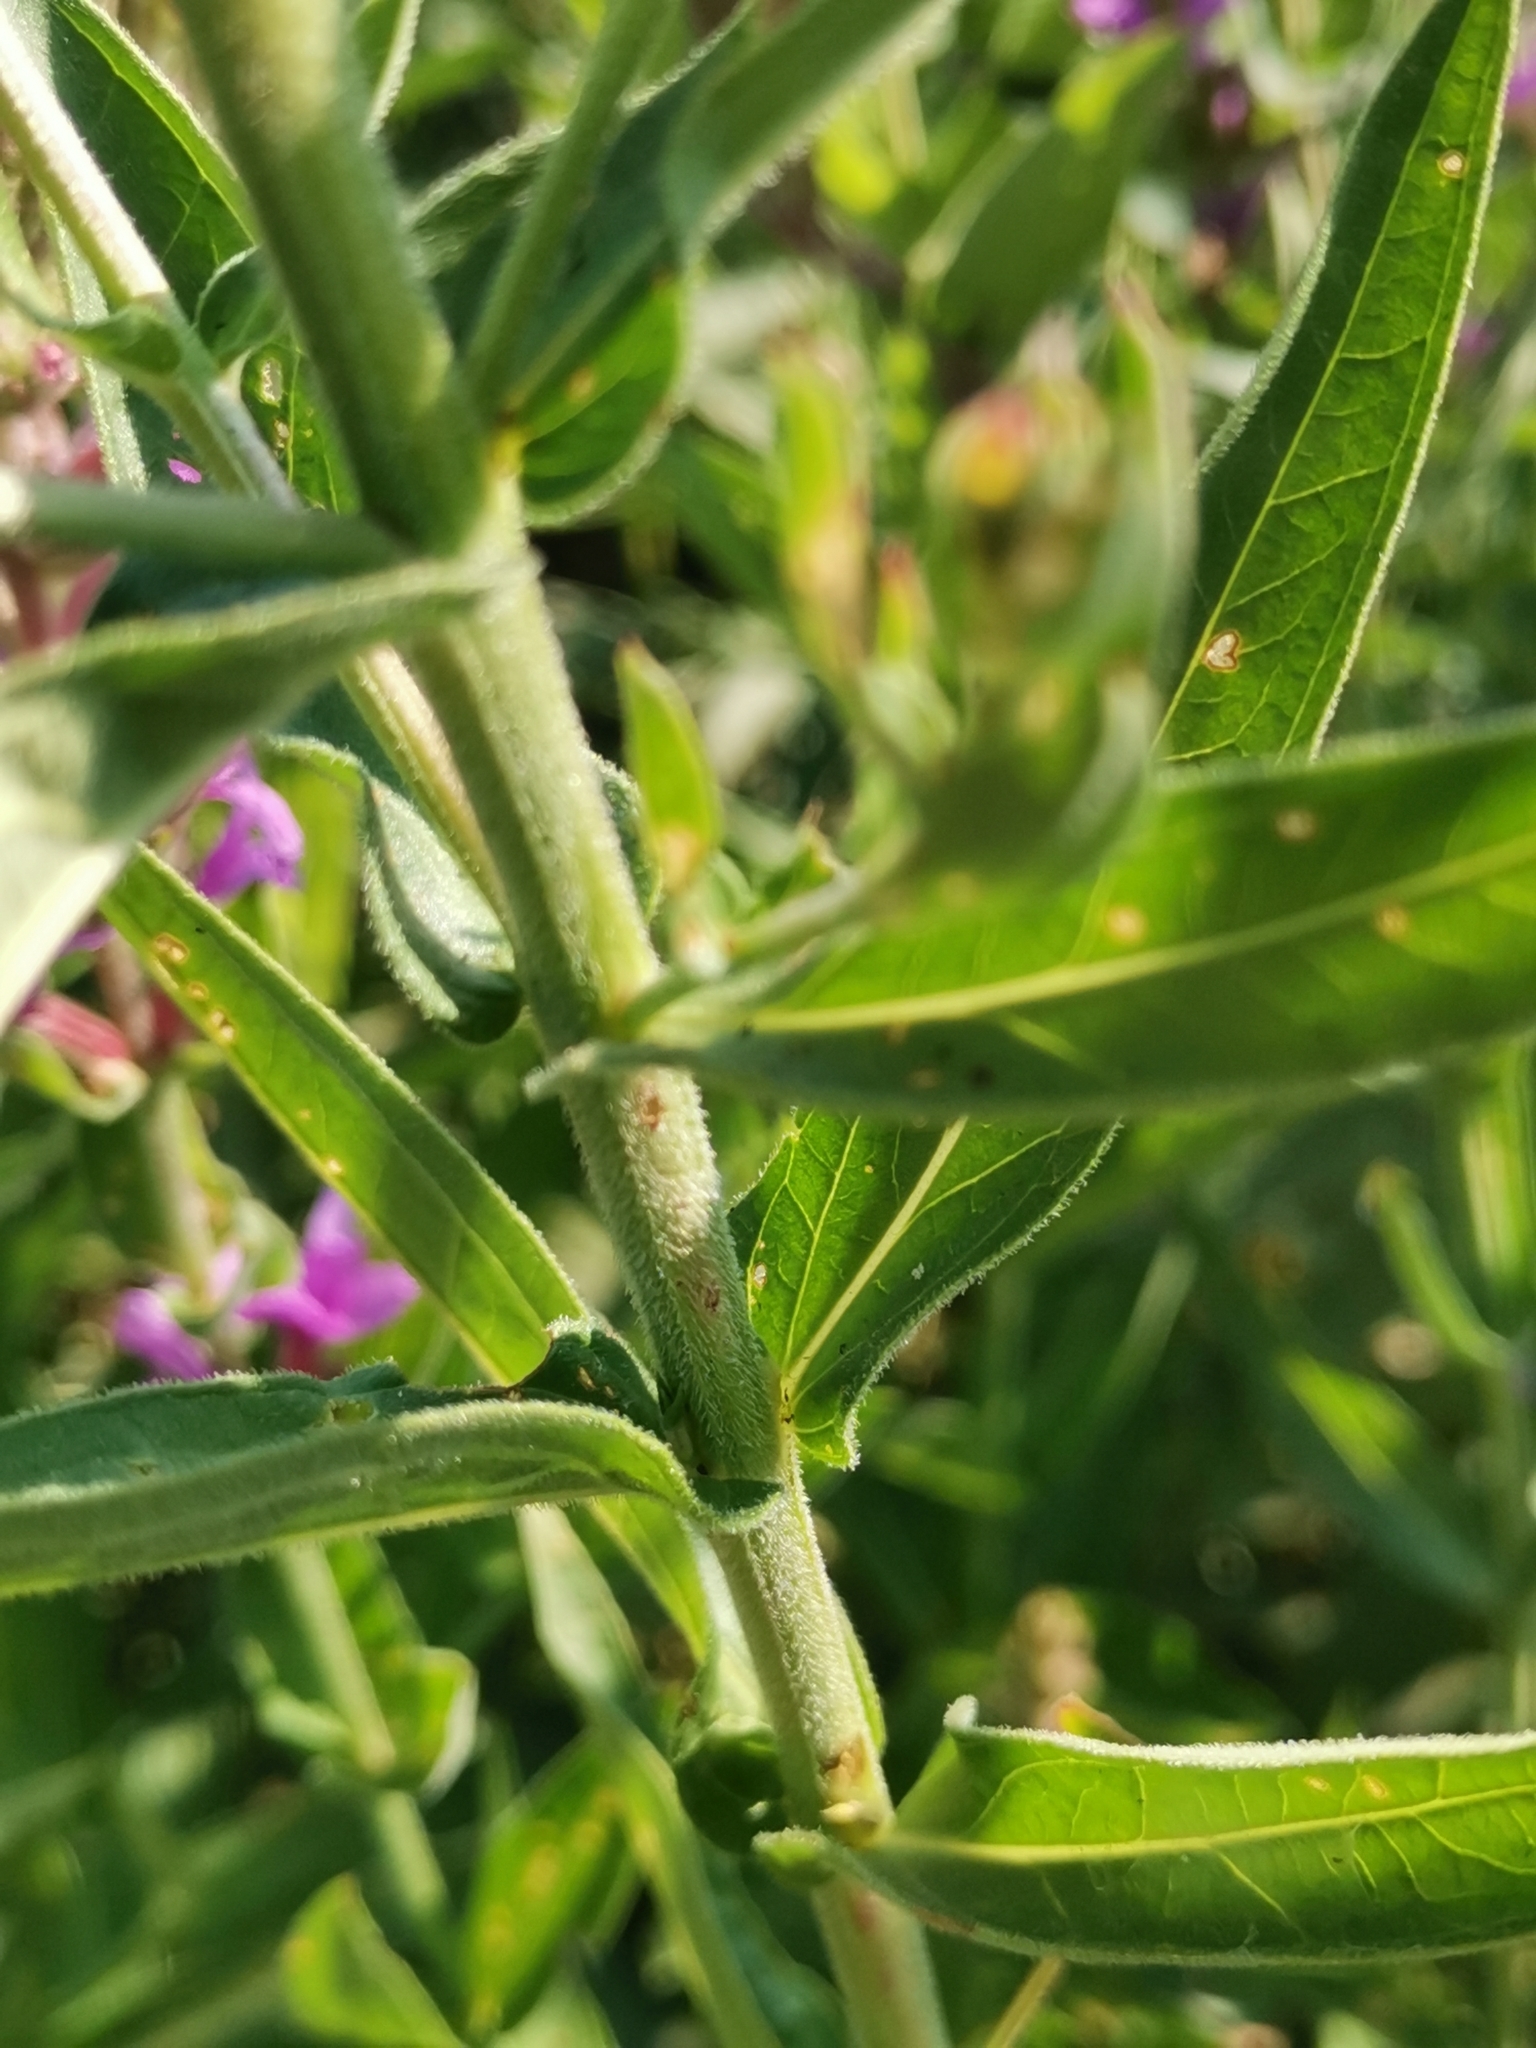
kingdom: Plantae
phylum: Tracheophyta
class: Magnoliopsida
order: Myrtales
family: Lythraceae
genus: Lythrum
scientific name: Lythrum salicaria
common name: Purple loosestrife
